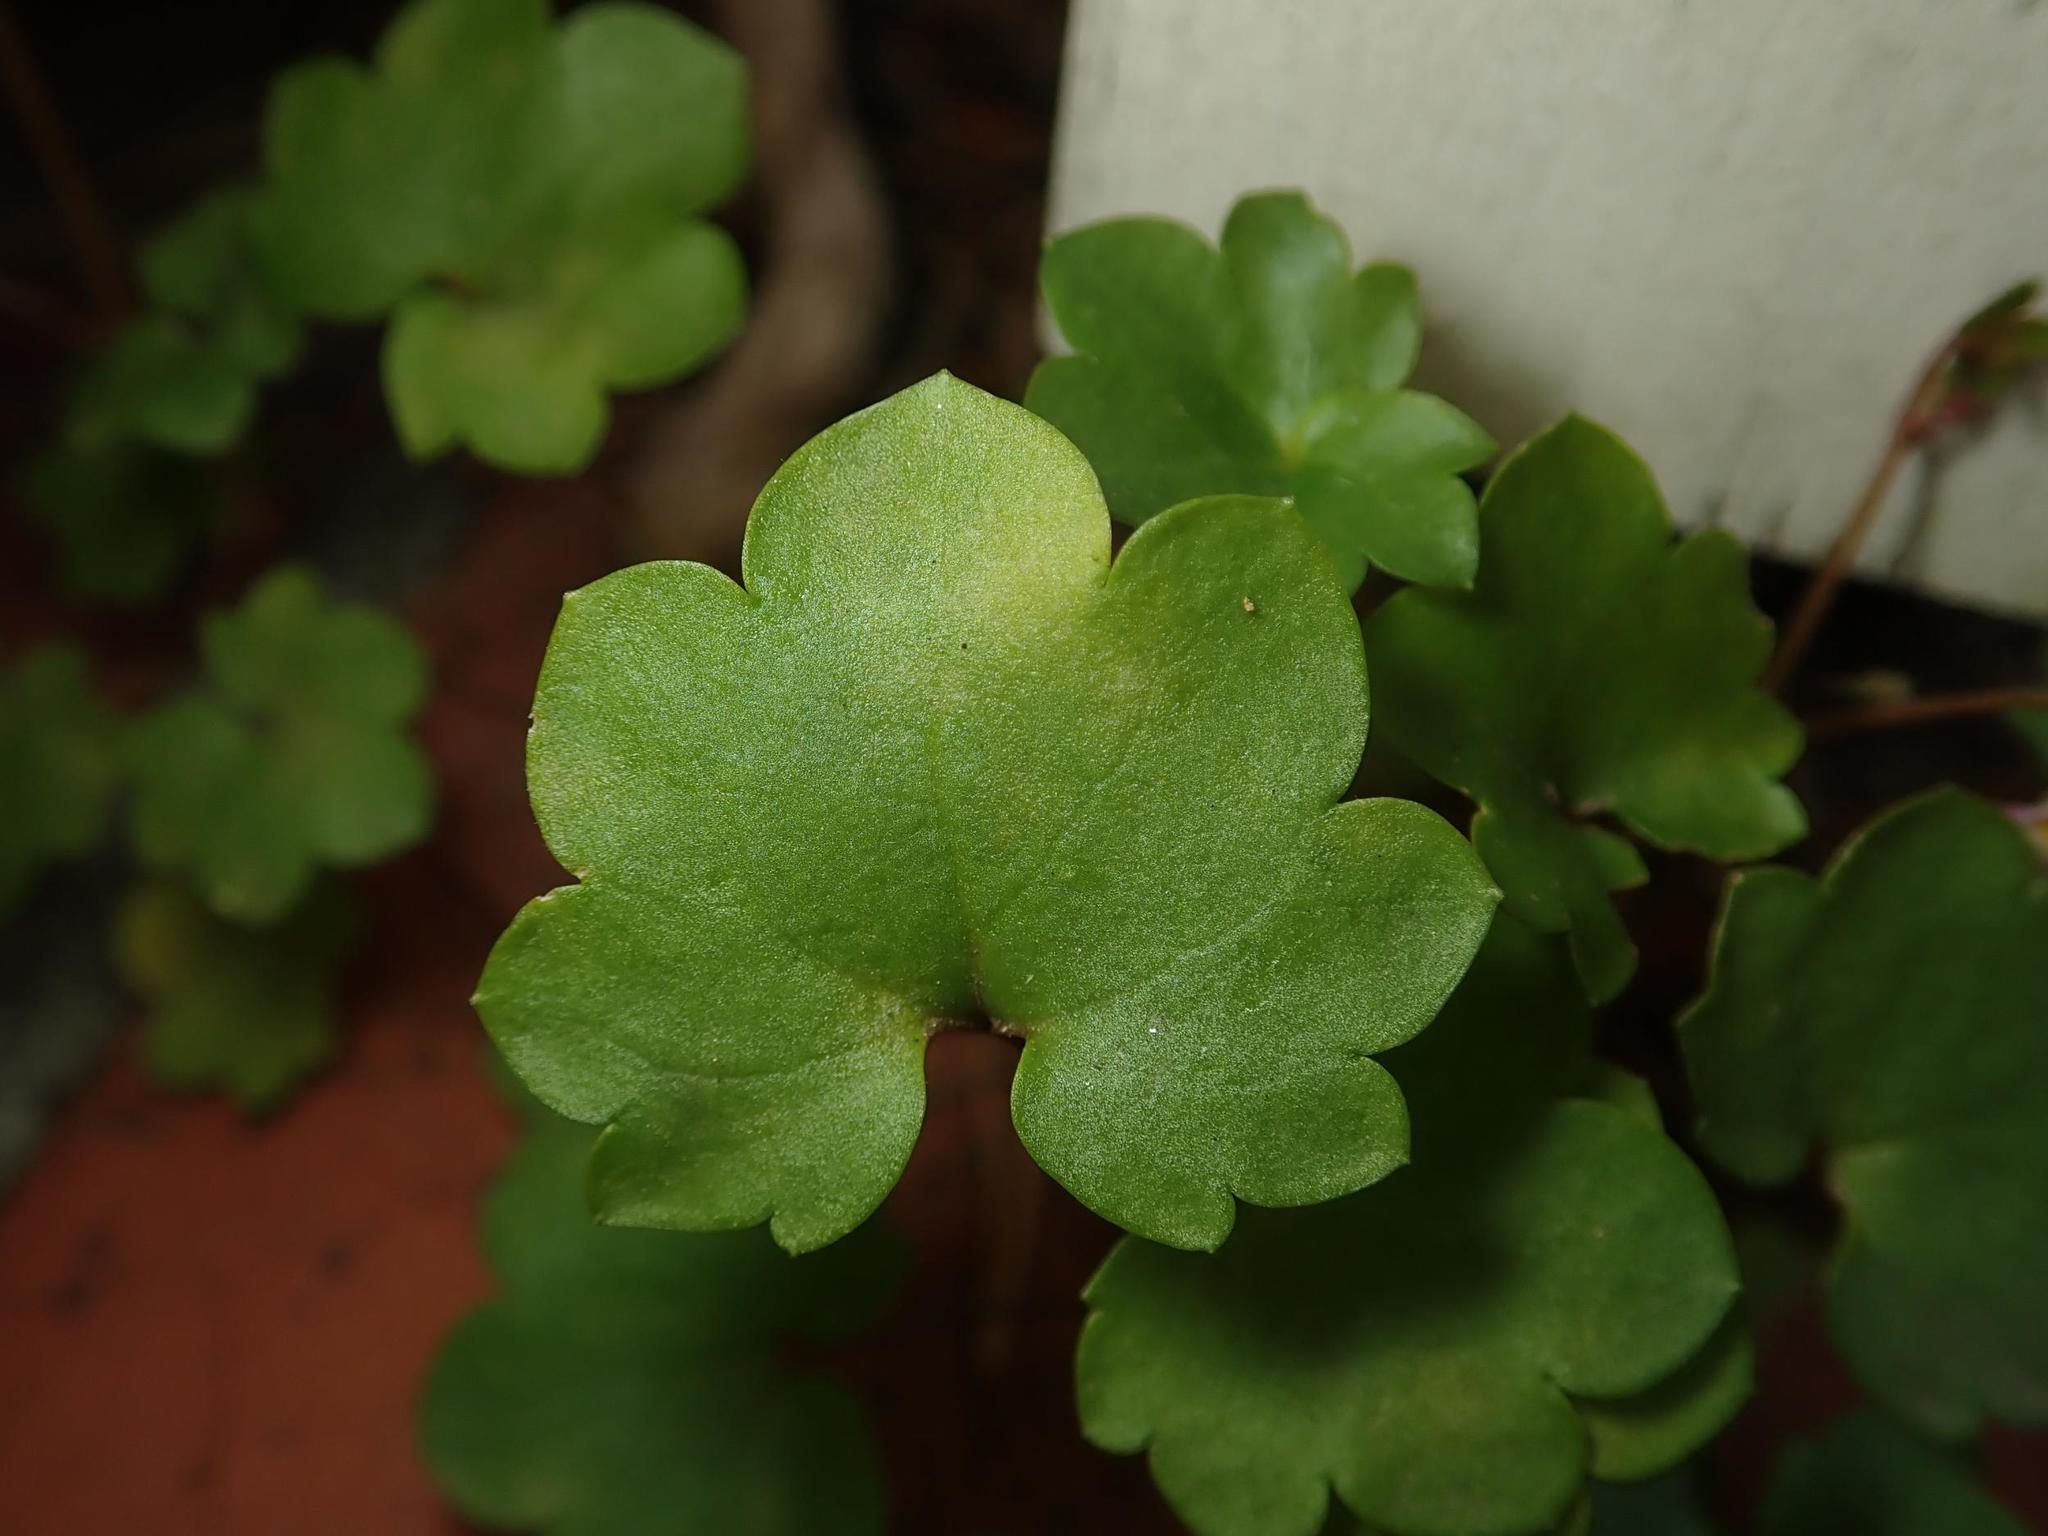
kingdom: Plantae
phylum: Tracheophyta
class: Magnoliopsida
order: Lamiales
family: Plantaginaceae
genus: Cymbalaria
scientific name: Cymbalaria muralis
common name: Ivy-leaved toadflax
